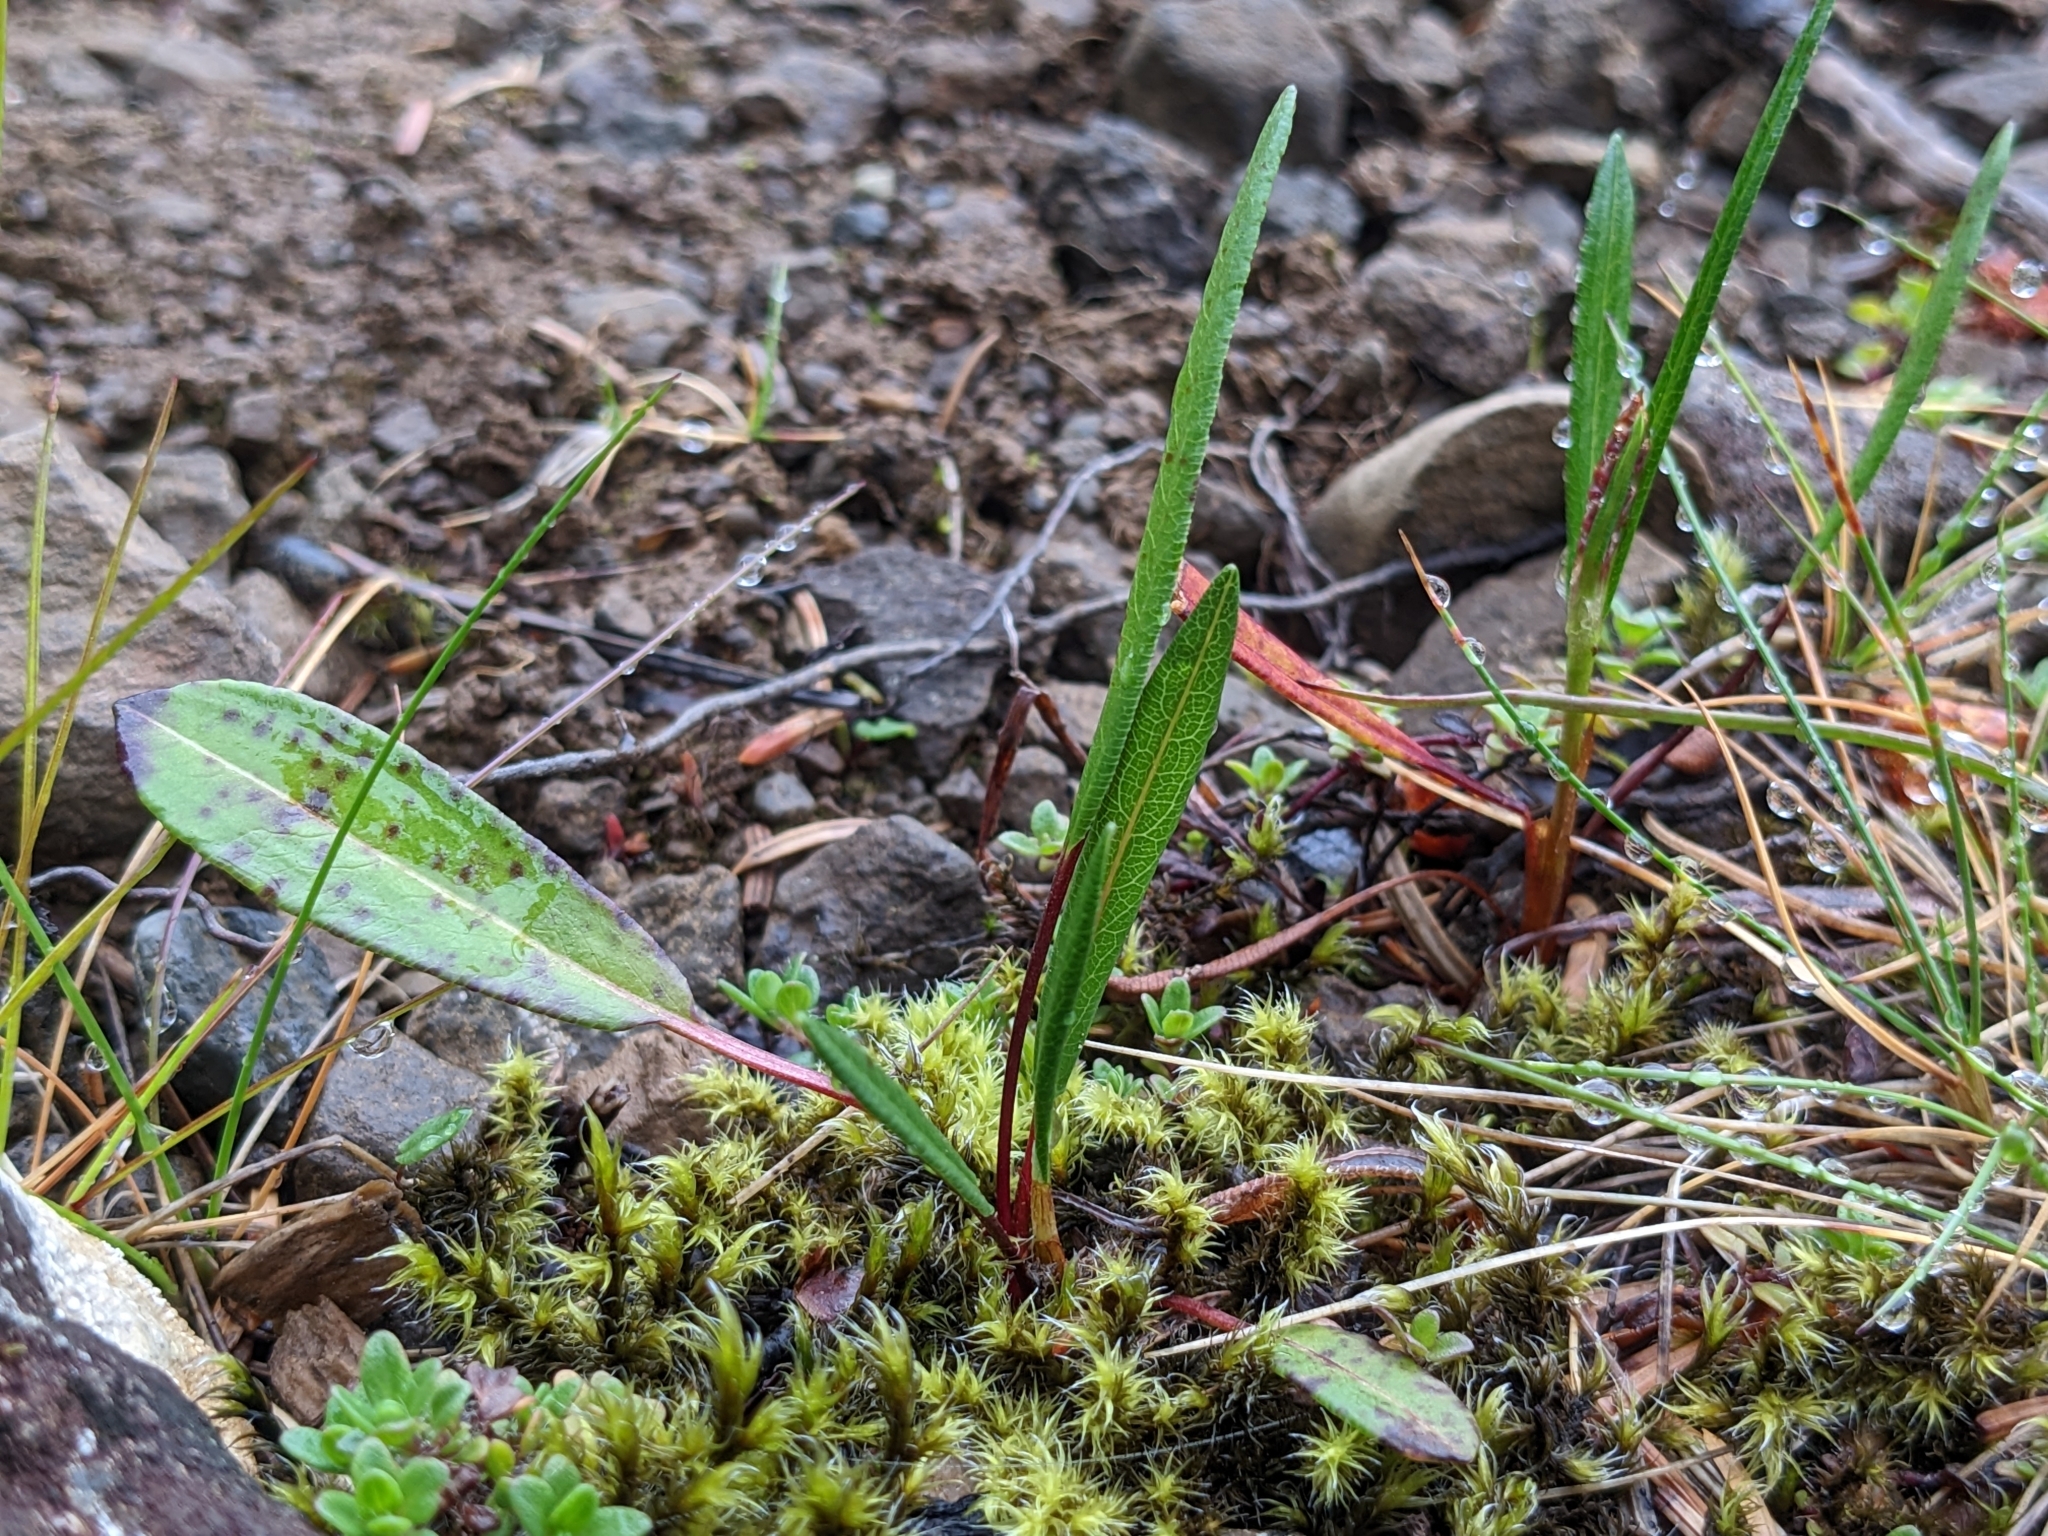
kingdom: Plantae
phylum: Tracheophyta
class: Magnoliopsida
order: Caryophyllales
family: Polygonaceae
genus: Bistorta
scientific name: Bistorta vivipara
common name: Alpine bistort
